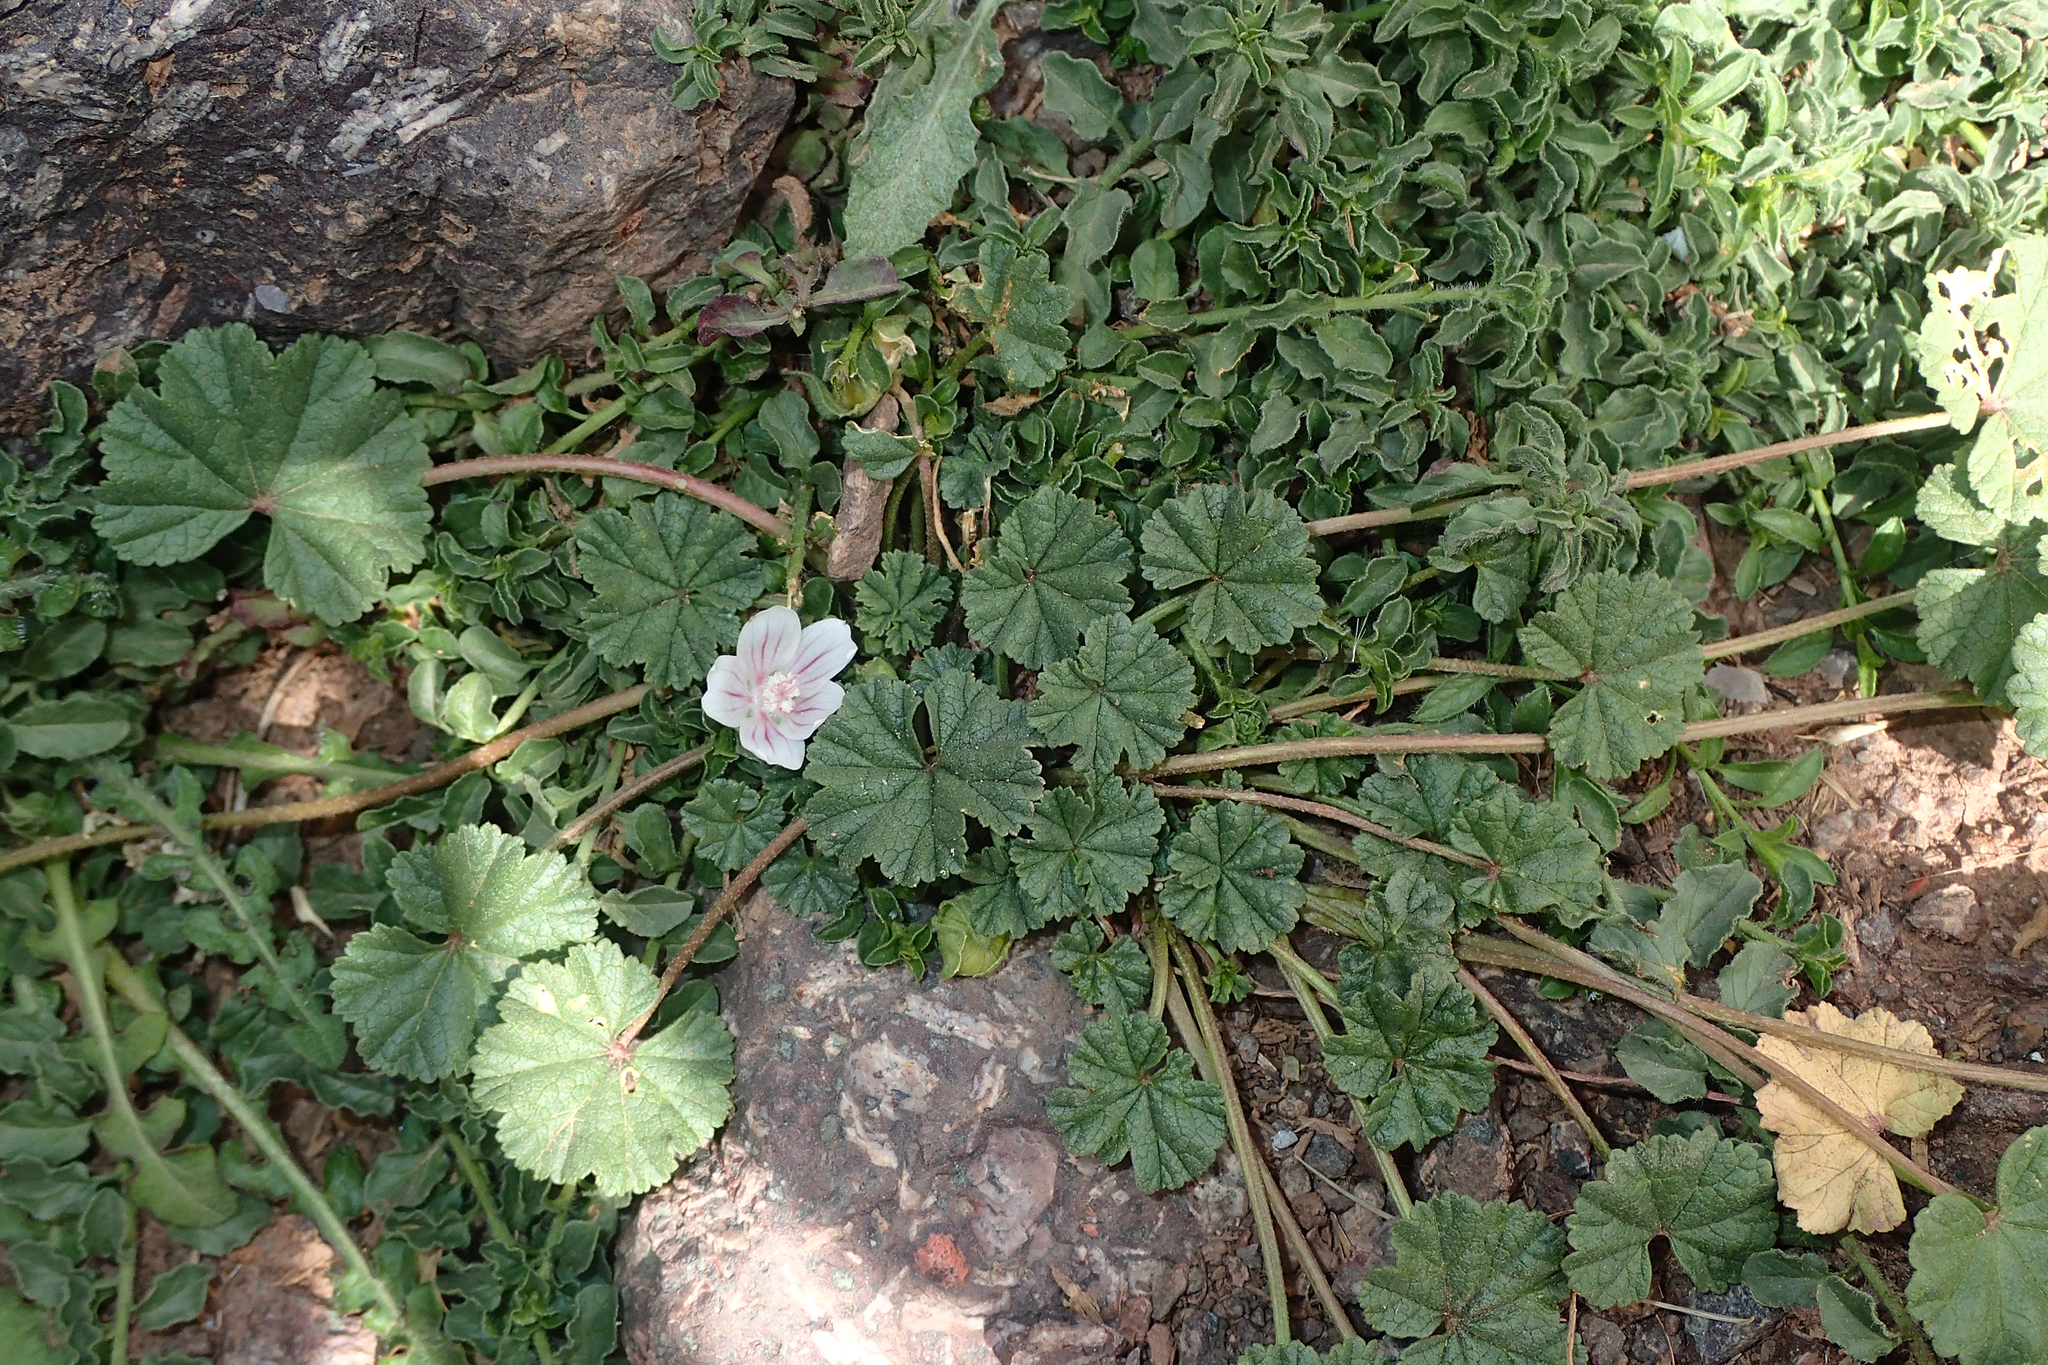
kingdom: Plantae
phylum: Tracheophyta
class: Magnoliopsida
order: Malvales
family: Malvaceae
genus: Malva
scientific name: Malva neglecta
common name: Common mallow
